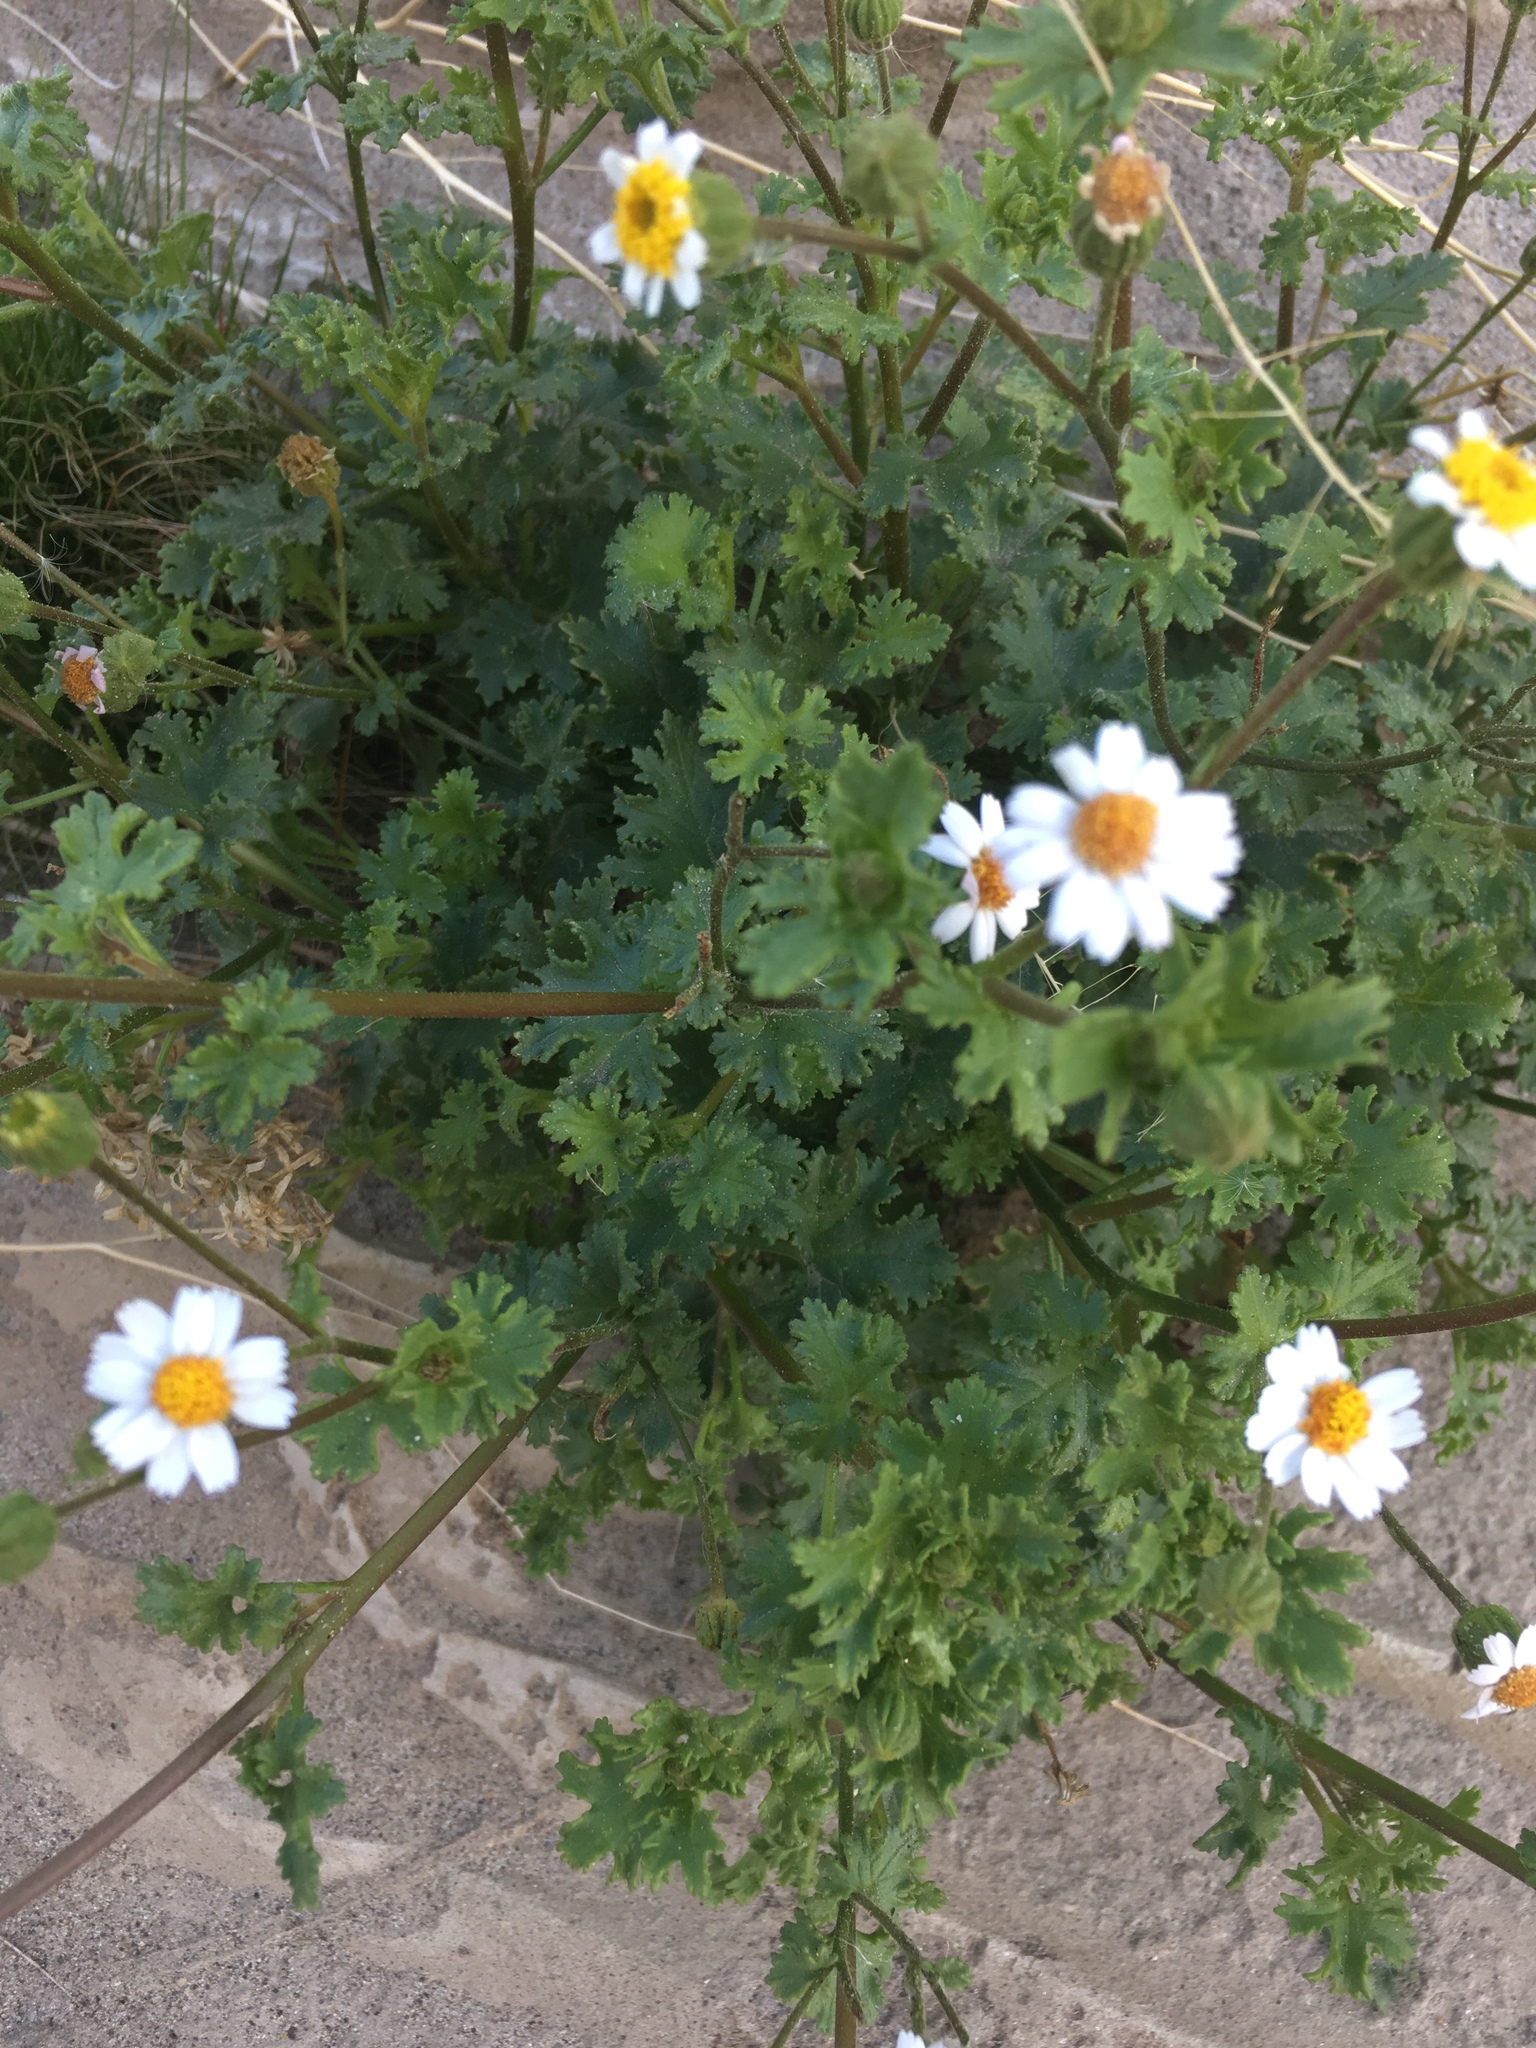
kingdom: Plantae
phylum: Tracheophyta
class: Magnoliopsida
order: Asterales
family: Asteraceae
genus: Laphamia
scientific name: Laphamia emoryi
